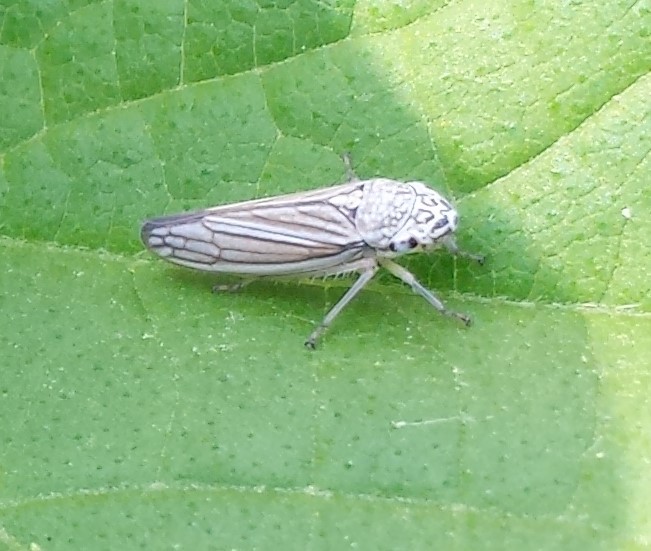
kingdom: Animalia
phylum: Arthropoda
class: Insecta
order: Hemiptera
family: Cicadellidae
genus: Neokolla
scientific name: Neokolla hieroglyphica
